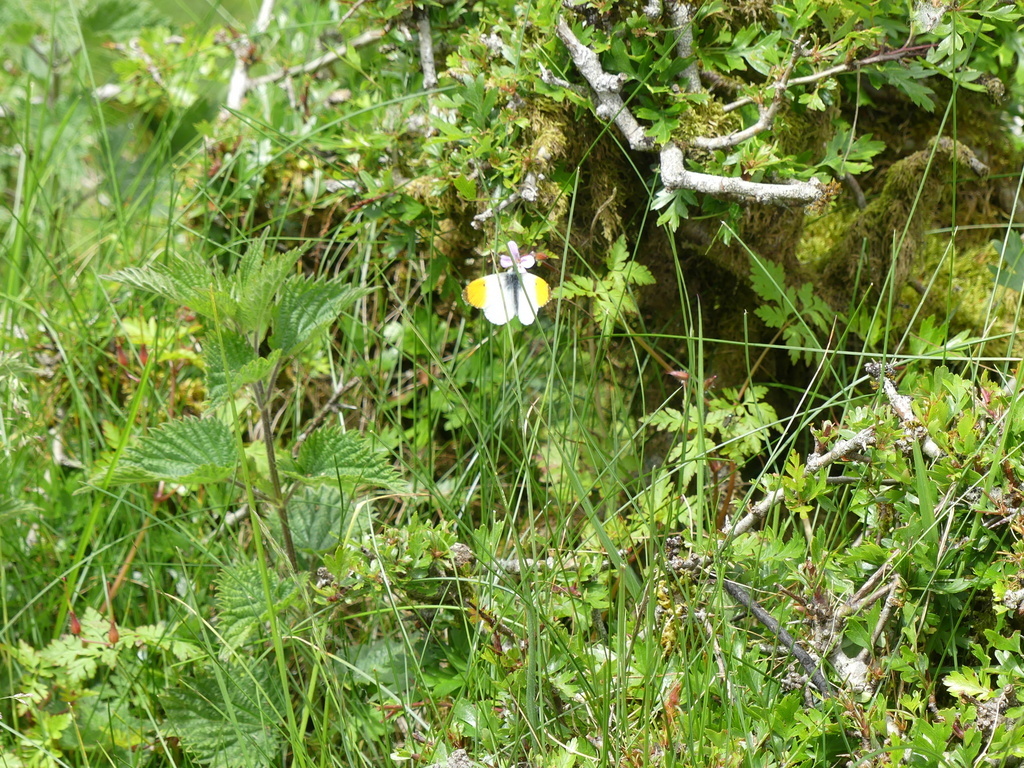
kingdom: Animalia
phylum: Arthropoda
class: Insecta
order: Lepidoptera
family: Pieridae
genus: Anthocharis
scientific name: Anthocharis cardamines
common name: Orange-tip
